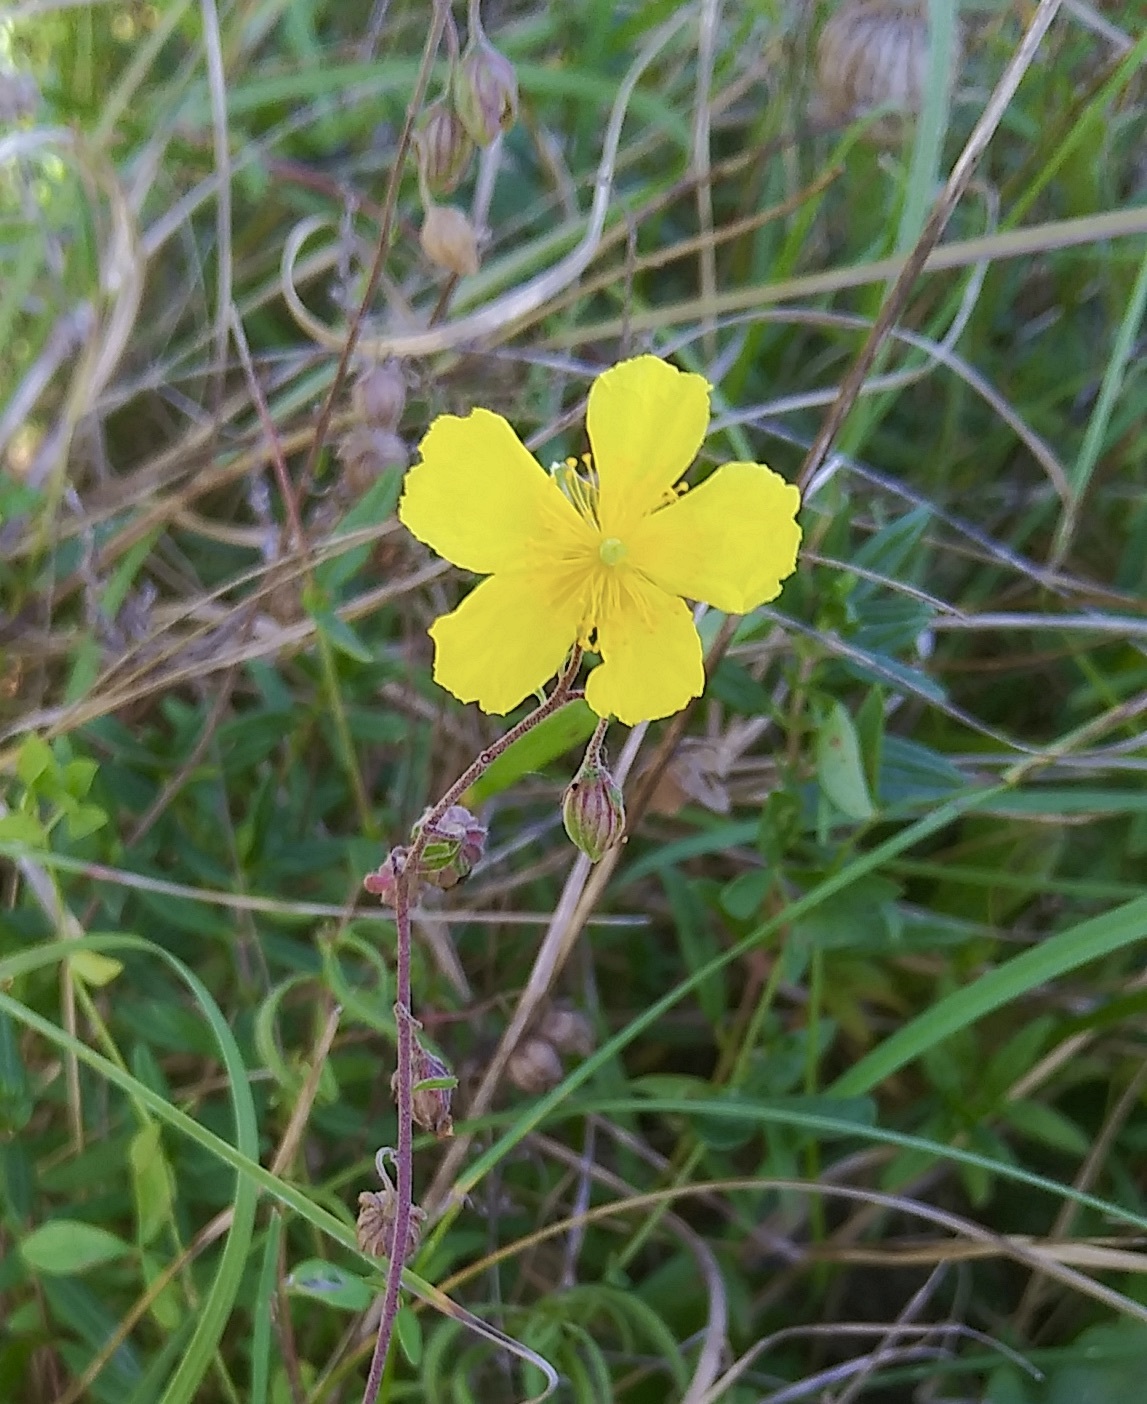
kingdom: Plantae
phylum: Tracheophyta
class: Magnoliopsida
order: Malvales
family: Cistaceae
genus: Helianthemum
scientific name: Helianthemum nummularium
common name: Common rock-rose
